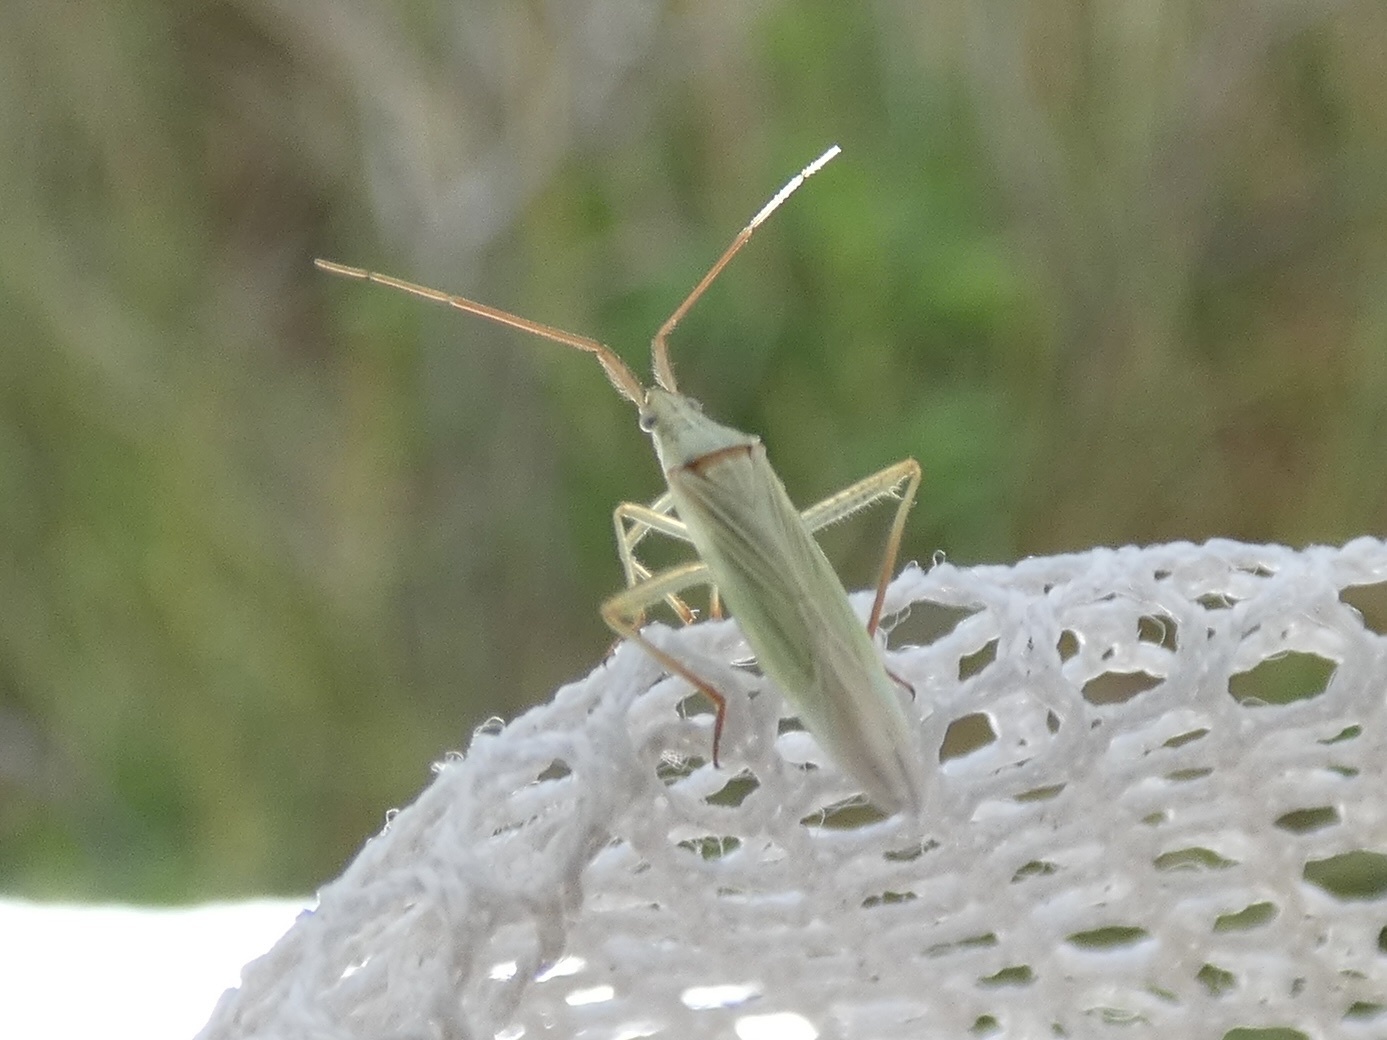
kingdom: Animalia
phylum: Arthropoda
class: Insecta
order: Hemiptera
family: Miridae
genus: Stenodema
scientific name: Stenodema calcarata
